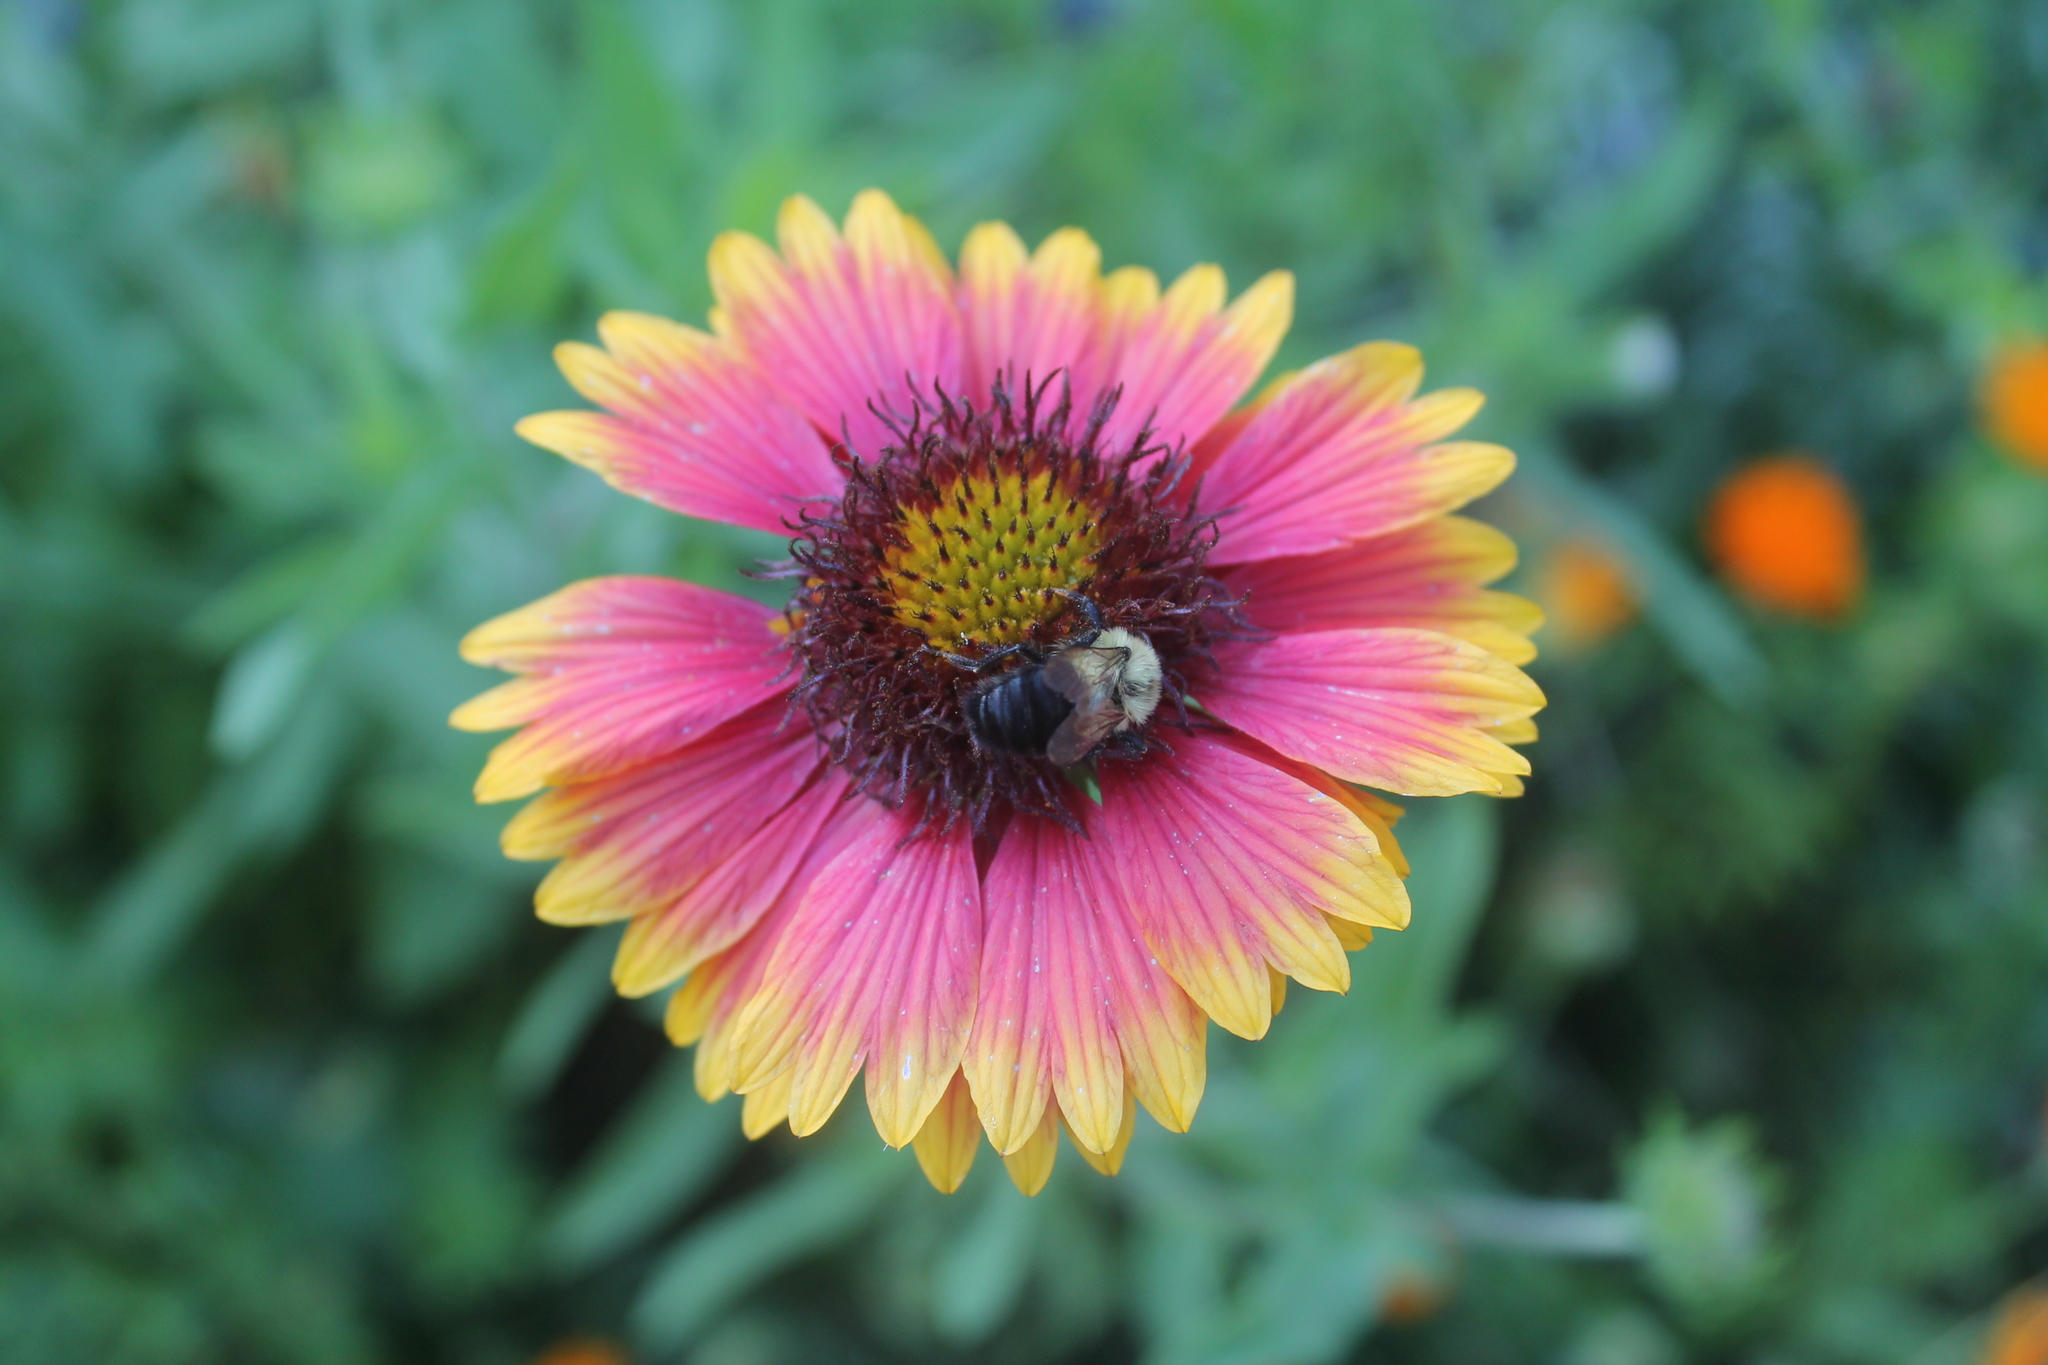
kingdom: Animalia
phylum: Arthropoda
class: Insecta
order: Hymenoptera
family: Apidae
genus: Bombus
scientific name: Bombus impatiens
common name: Common eastern bumble bee
